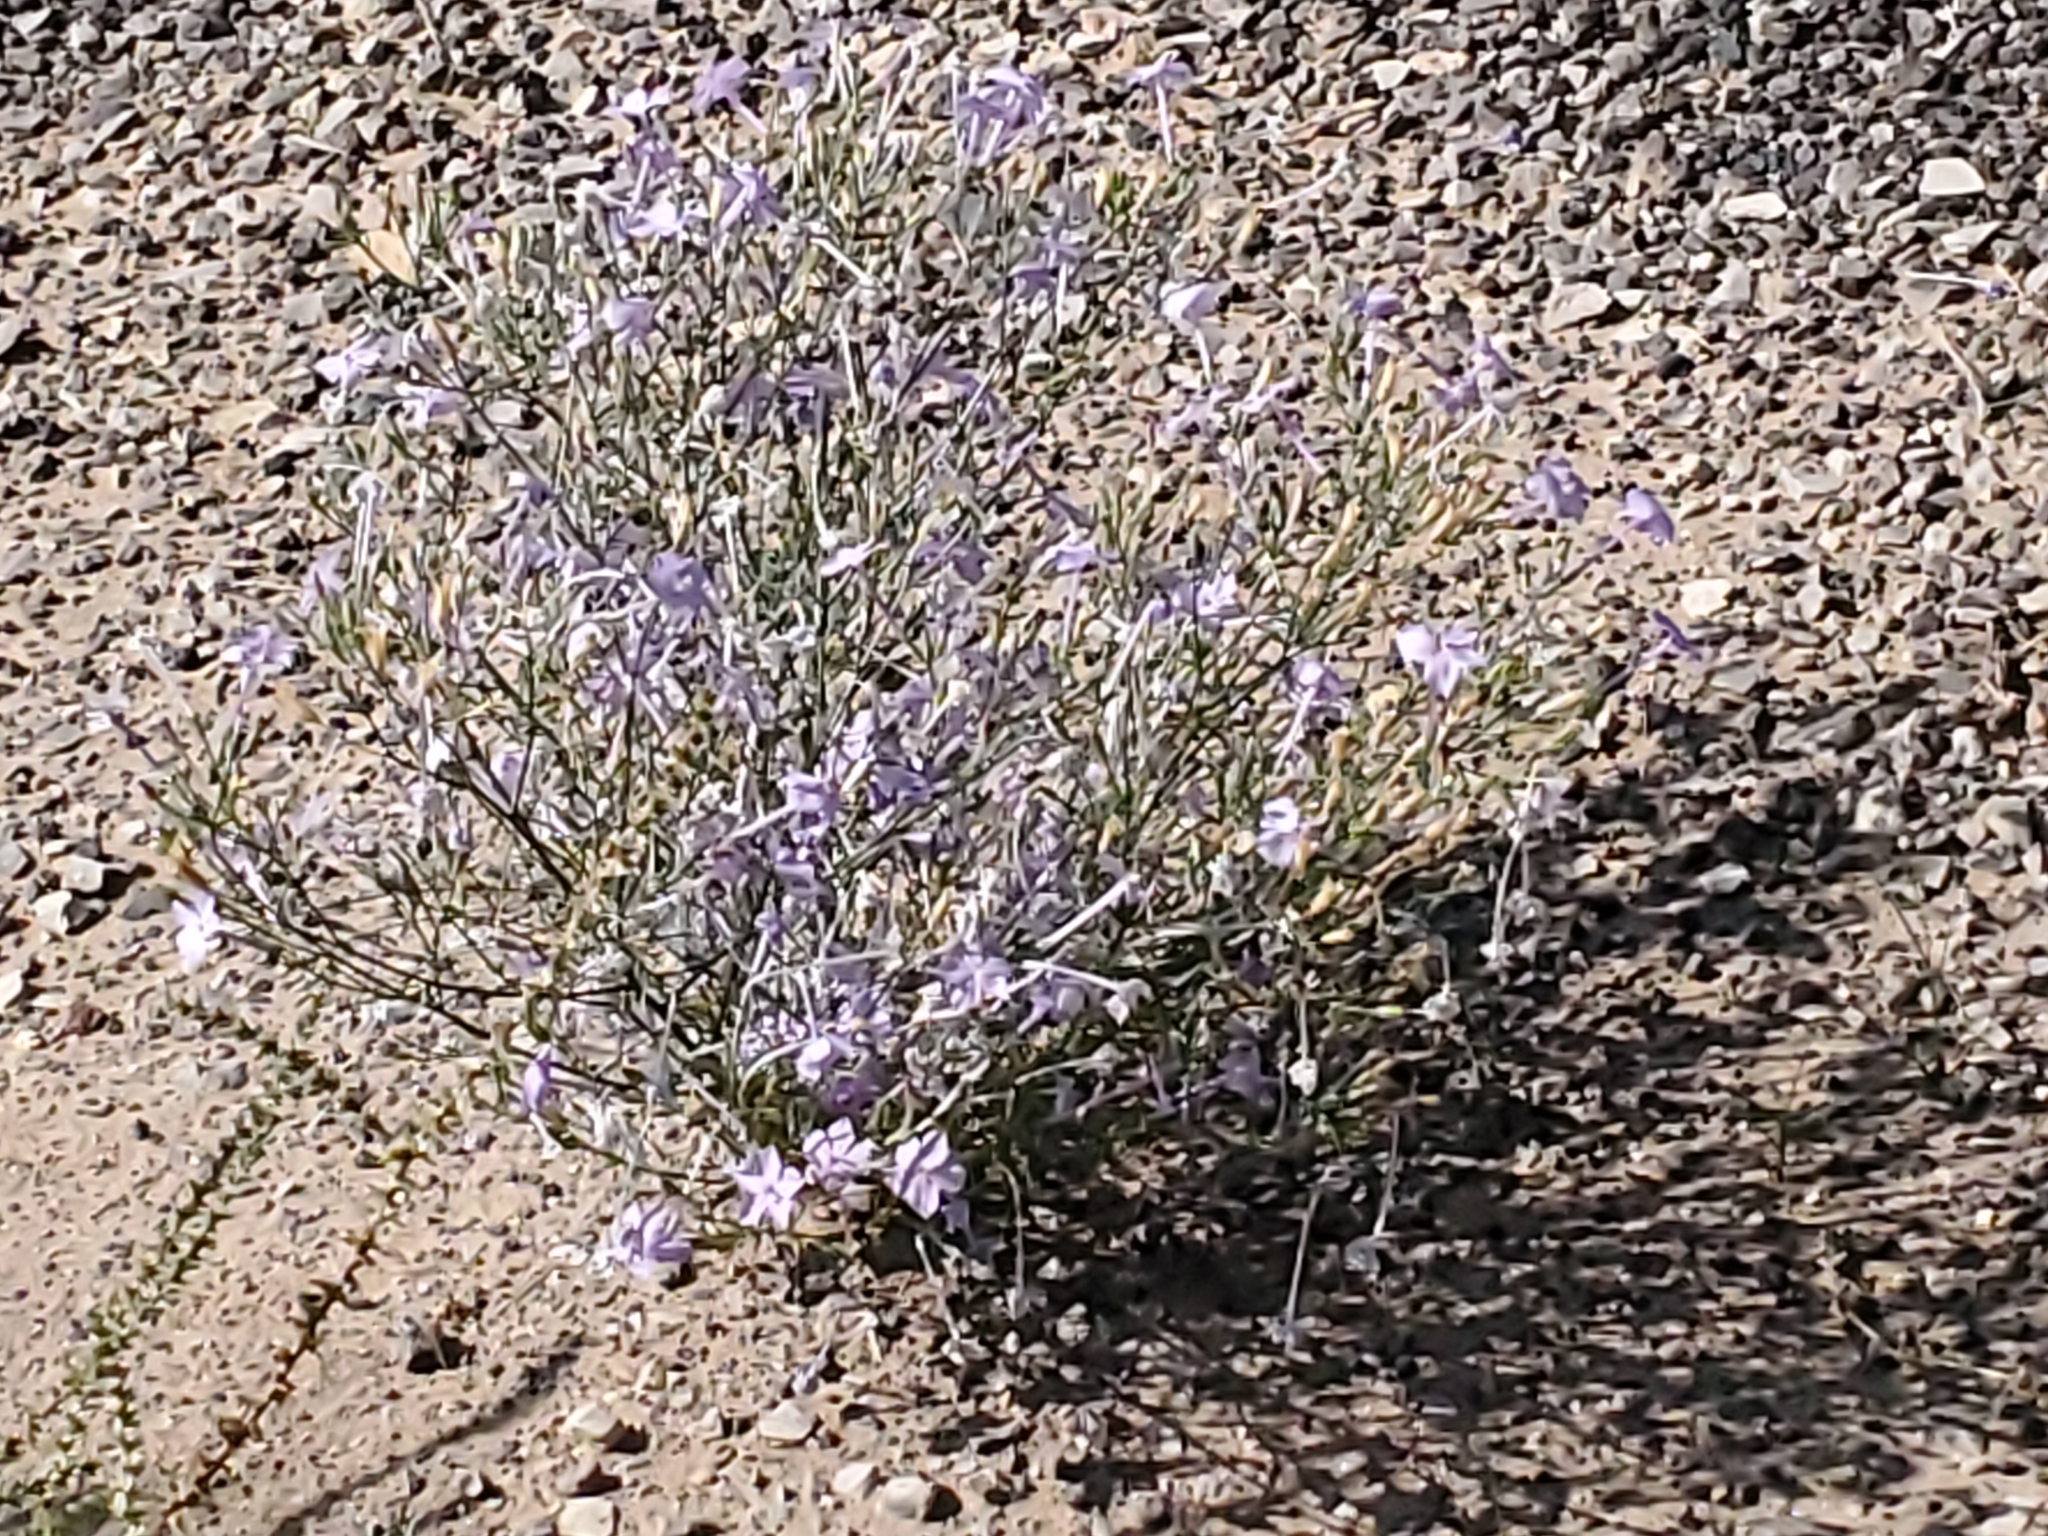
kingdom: Plantae
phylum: Tracheophyta
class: Magnoliopsida
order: Ericales
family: Polemoniaceae
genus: Ipomopsis
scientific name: Ipomopsis longiflora
